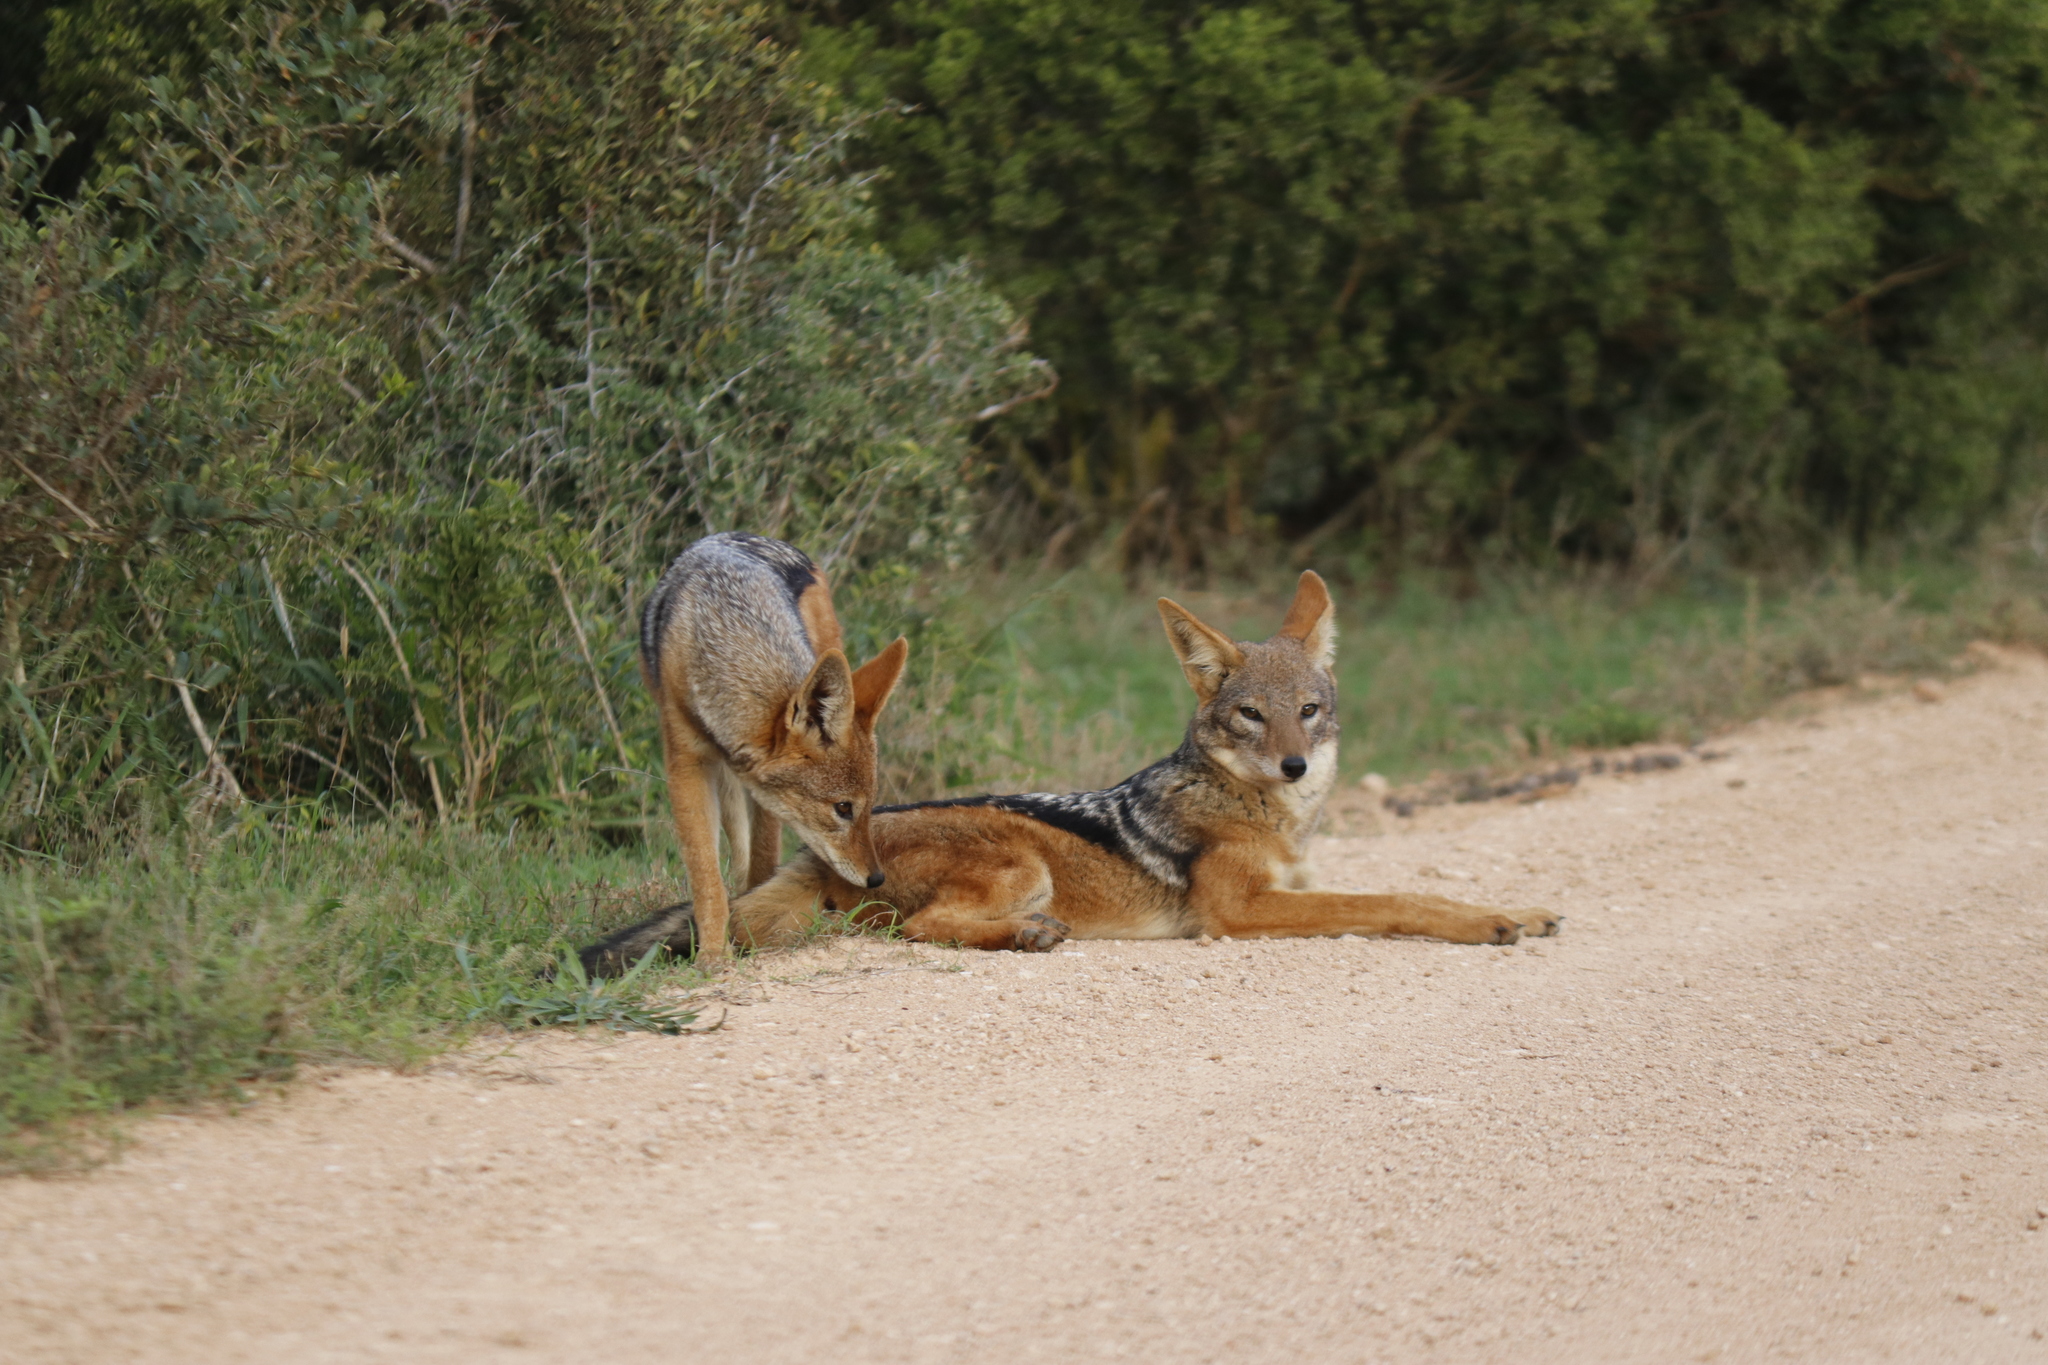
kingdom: Animalia
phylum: Chordata
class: Mammalia
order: Carnivora
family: Canidae
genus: Lupulella
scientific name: Lupulella
